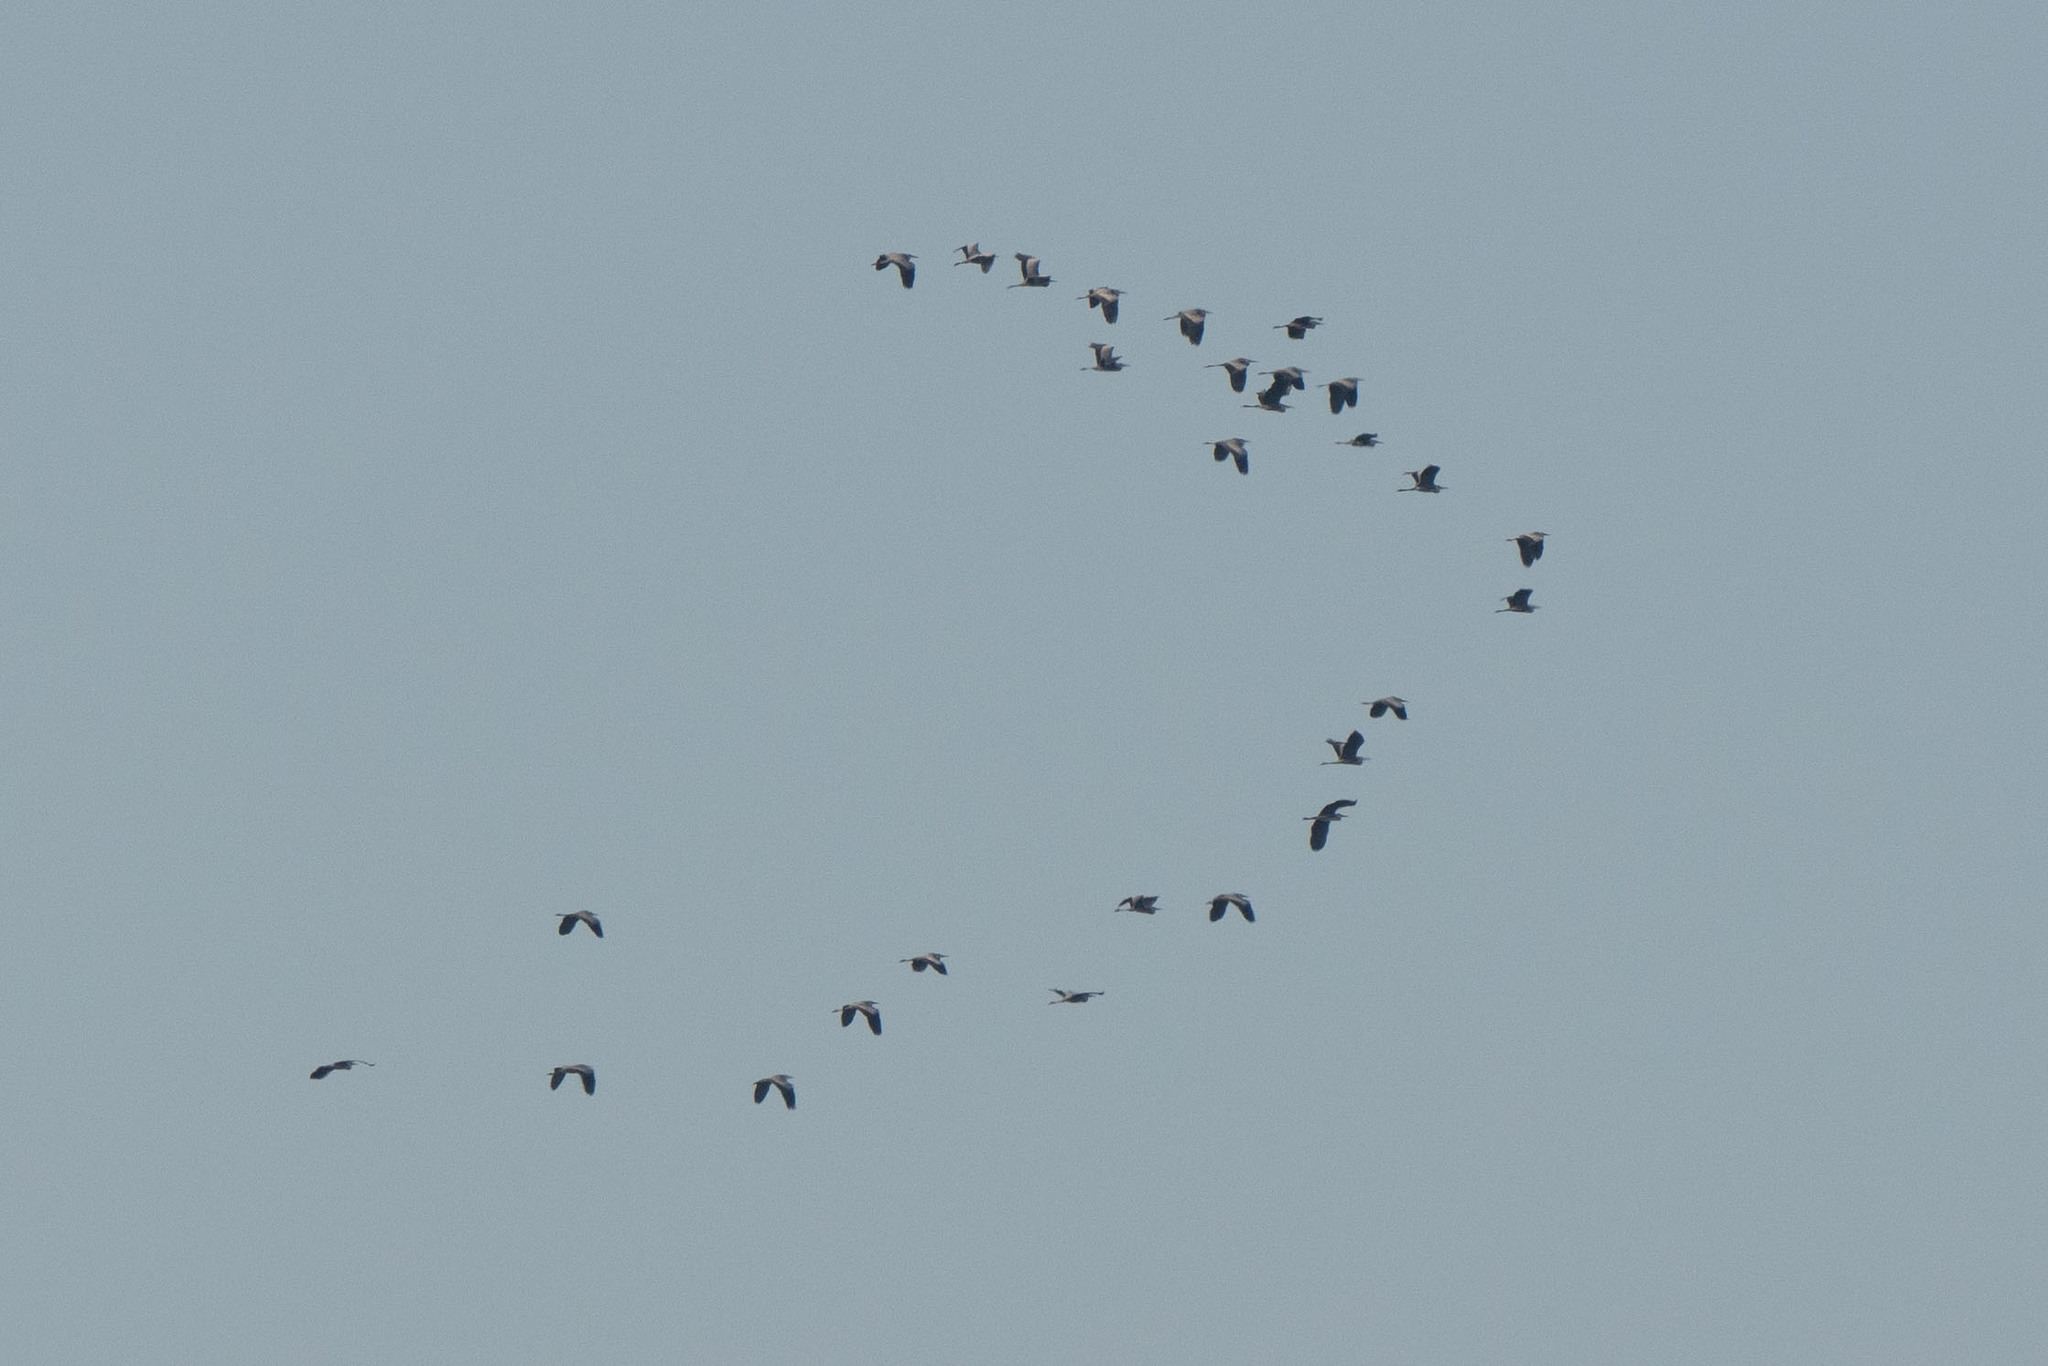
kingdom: Animalia
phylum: Chordata
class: Aves
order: Pelecaniformes
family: Ardeidae
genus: Ardea
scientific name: Ardea cinerea
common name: Grey heron
